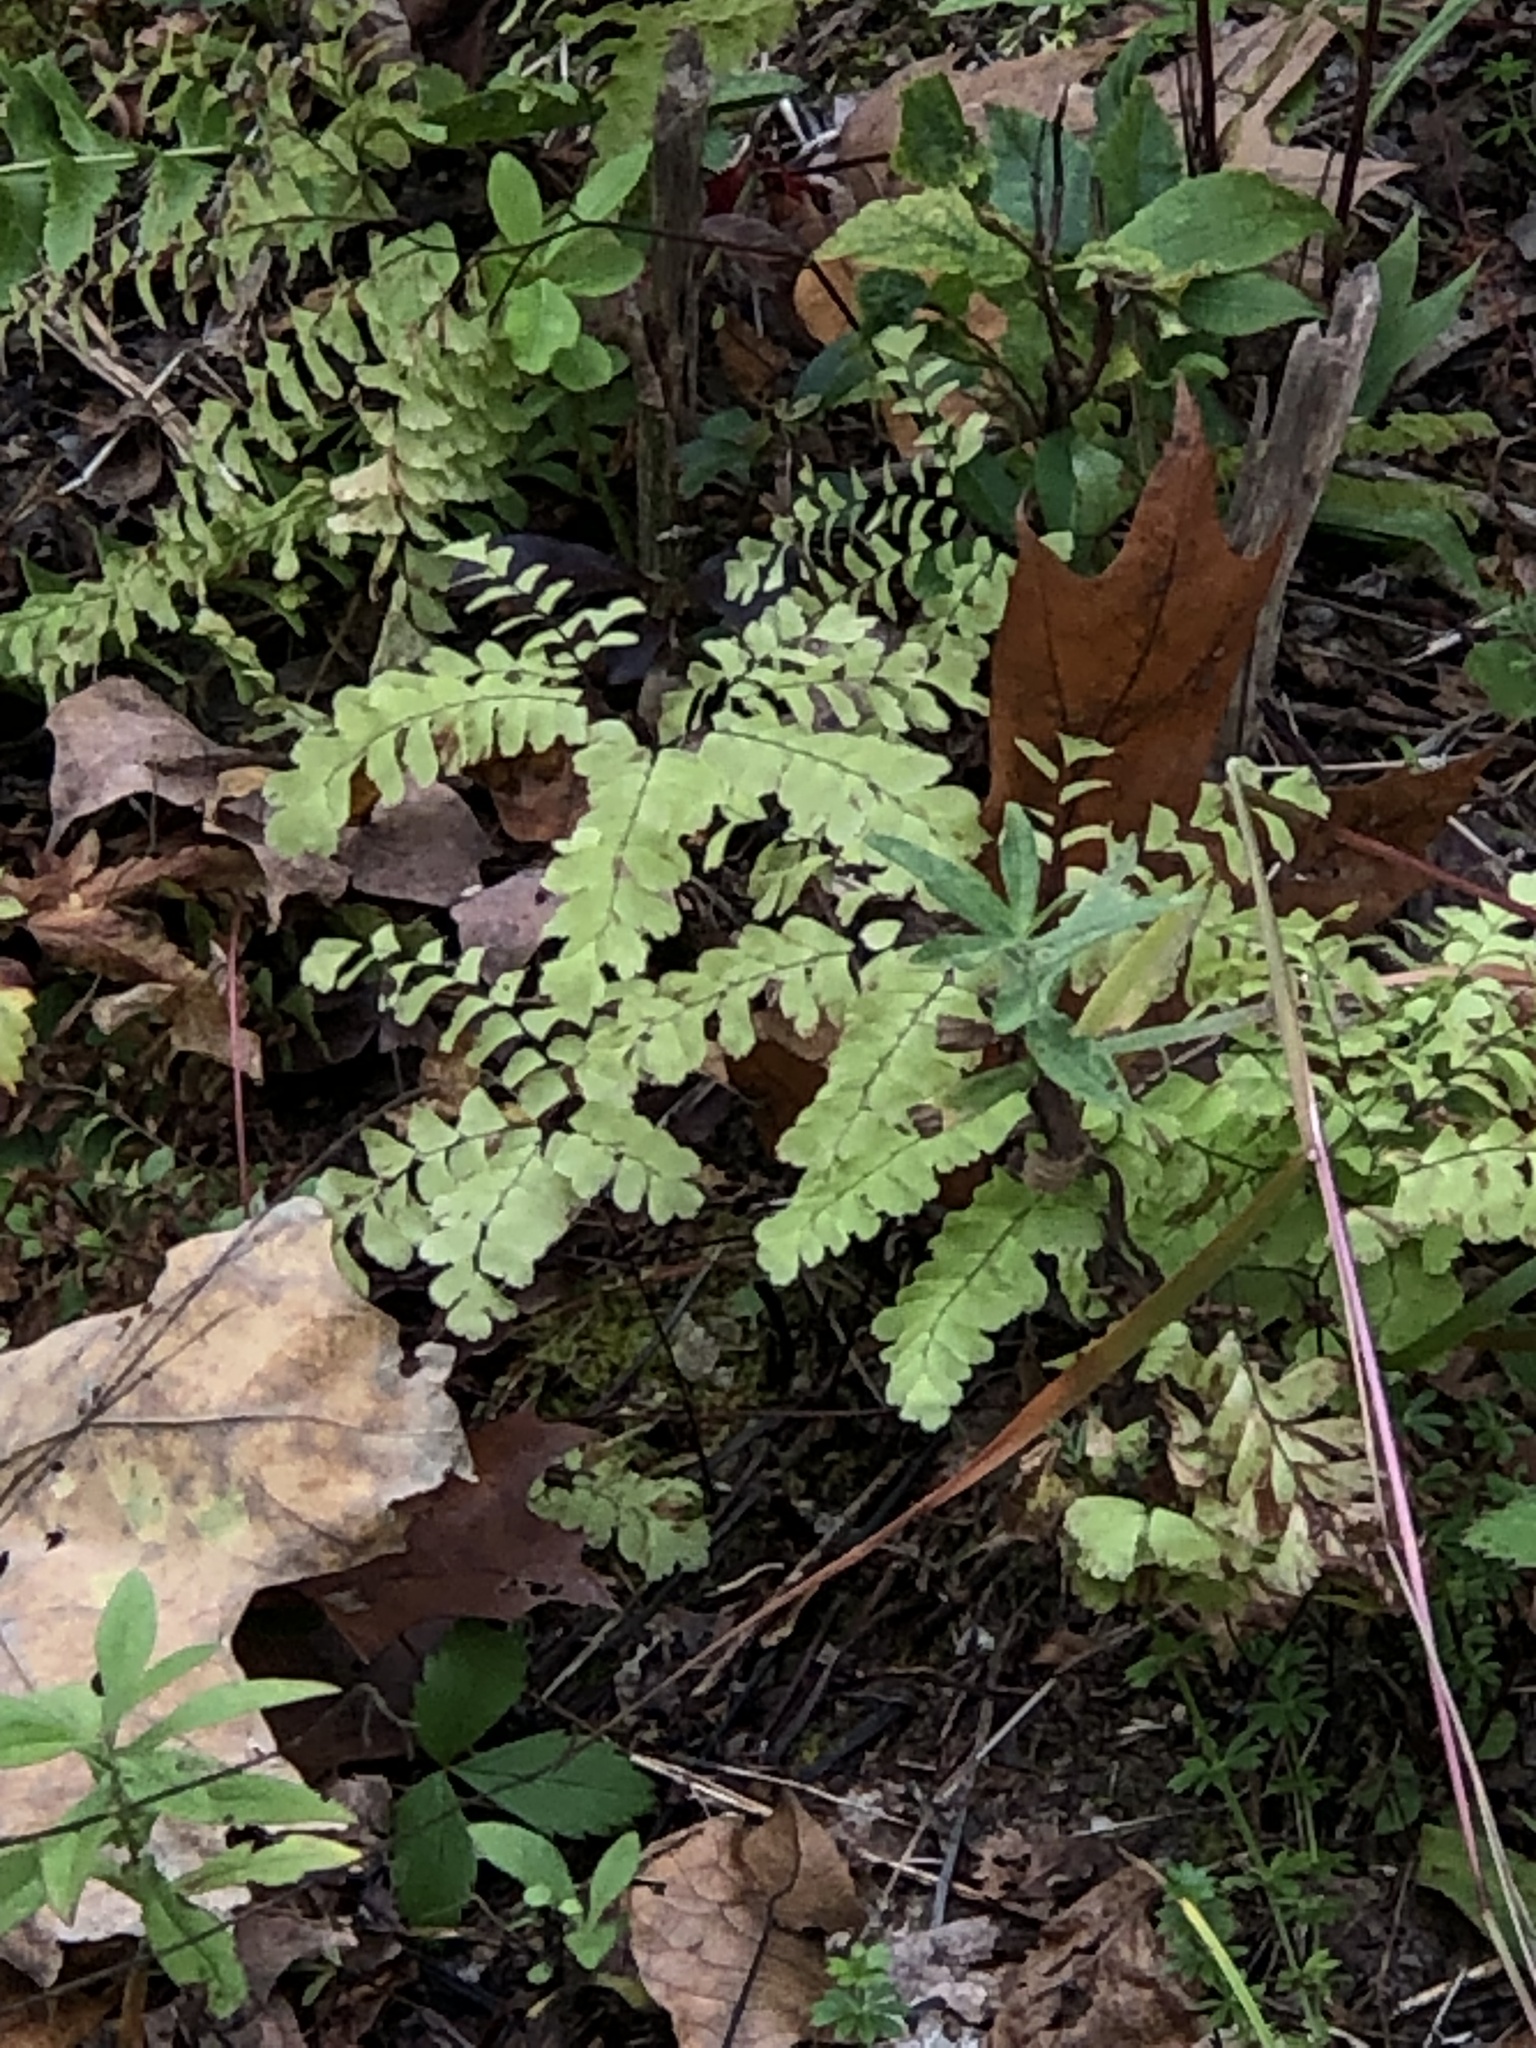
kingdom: Plantae
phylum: Tracheophyta
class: Polypodiopsida
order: Polypodiales
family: Pteridaceae
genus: Adiantum
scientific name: Adiantum pedatum
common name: Five-finger fern
